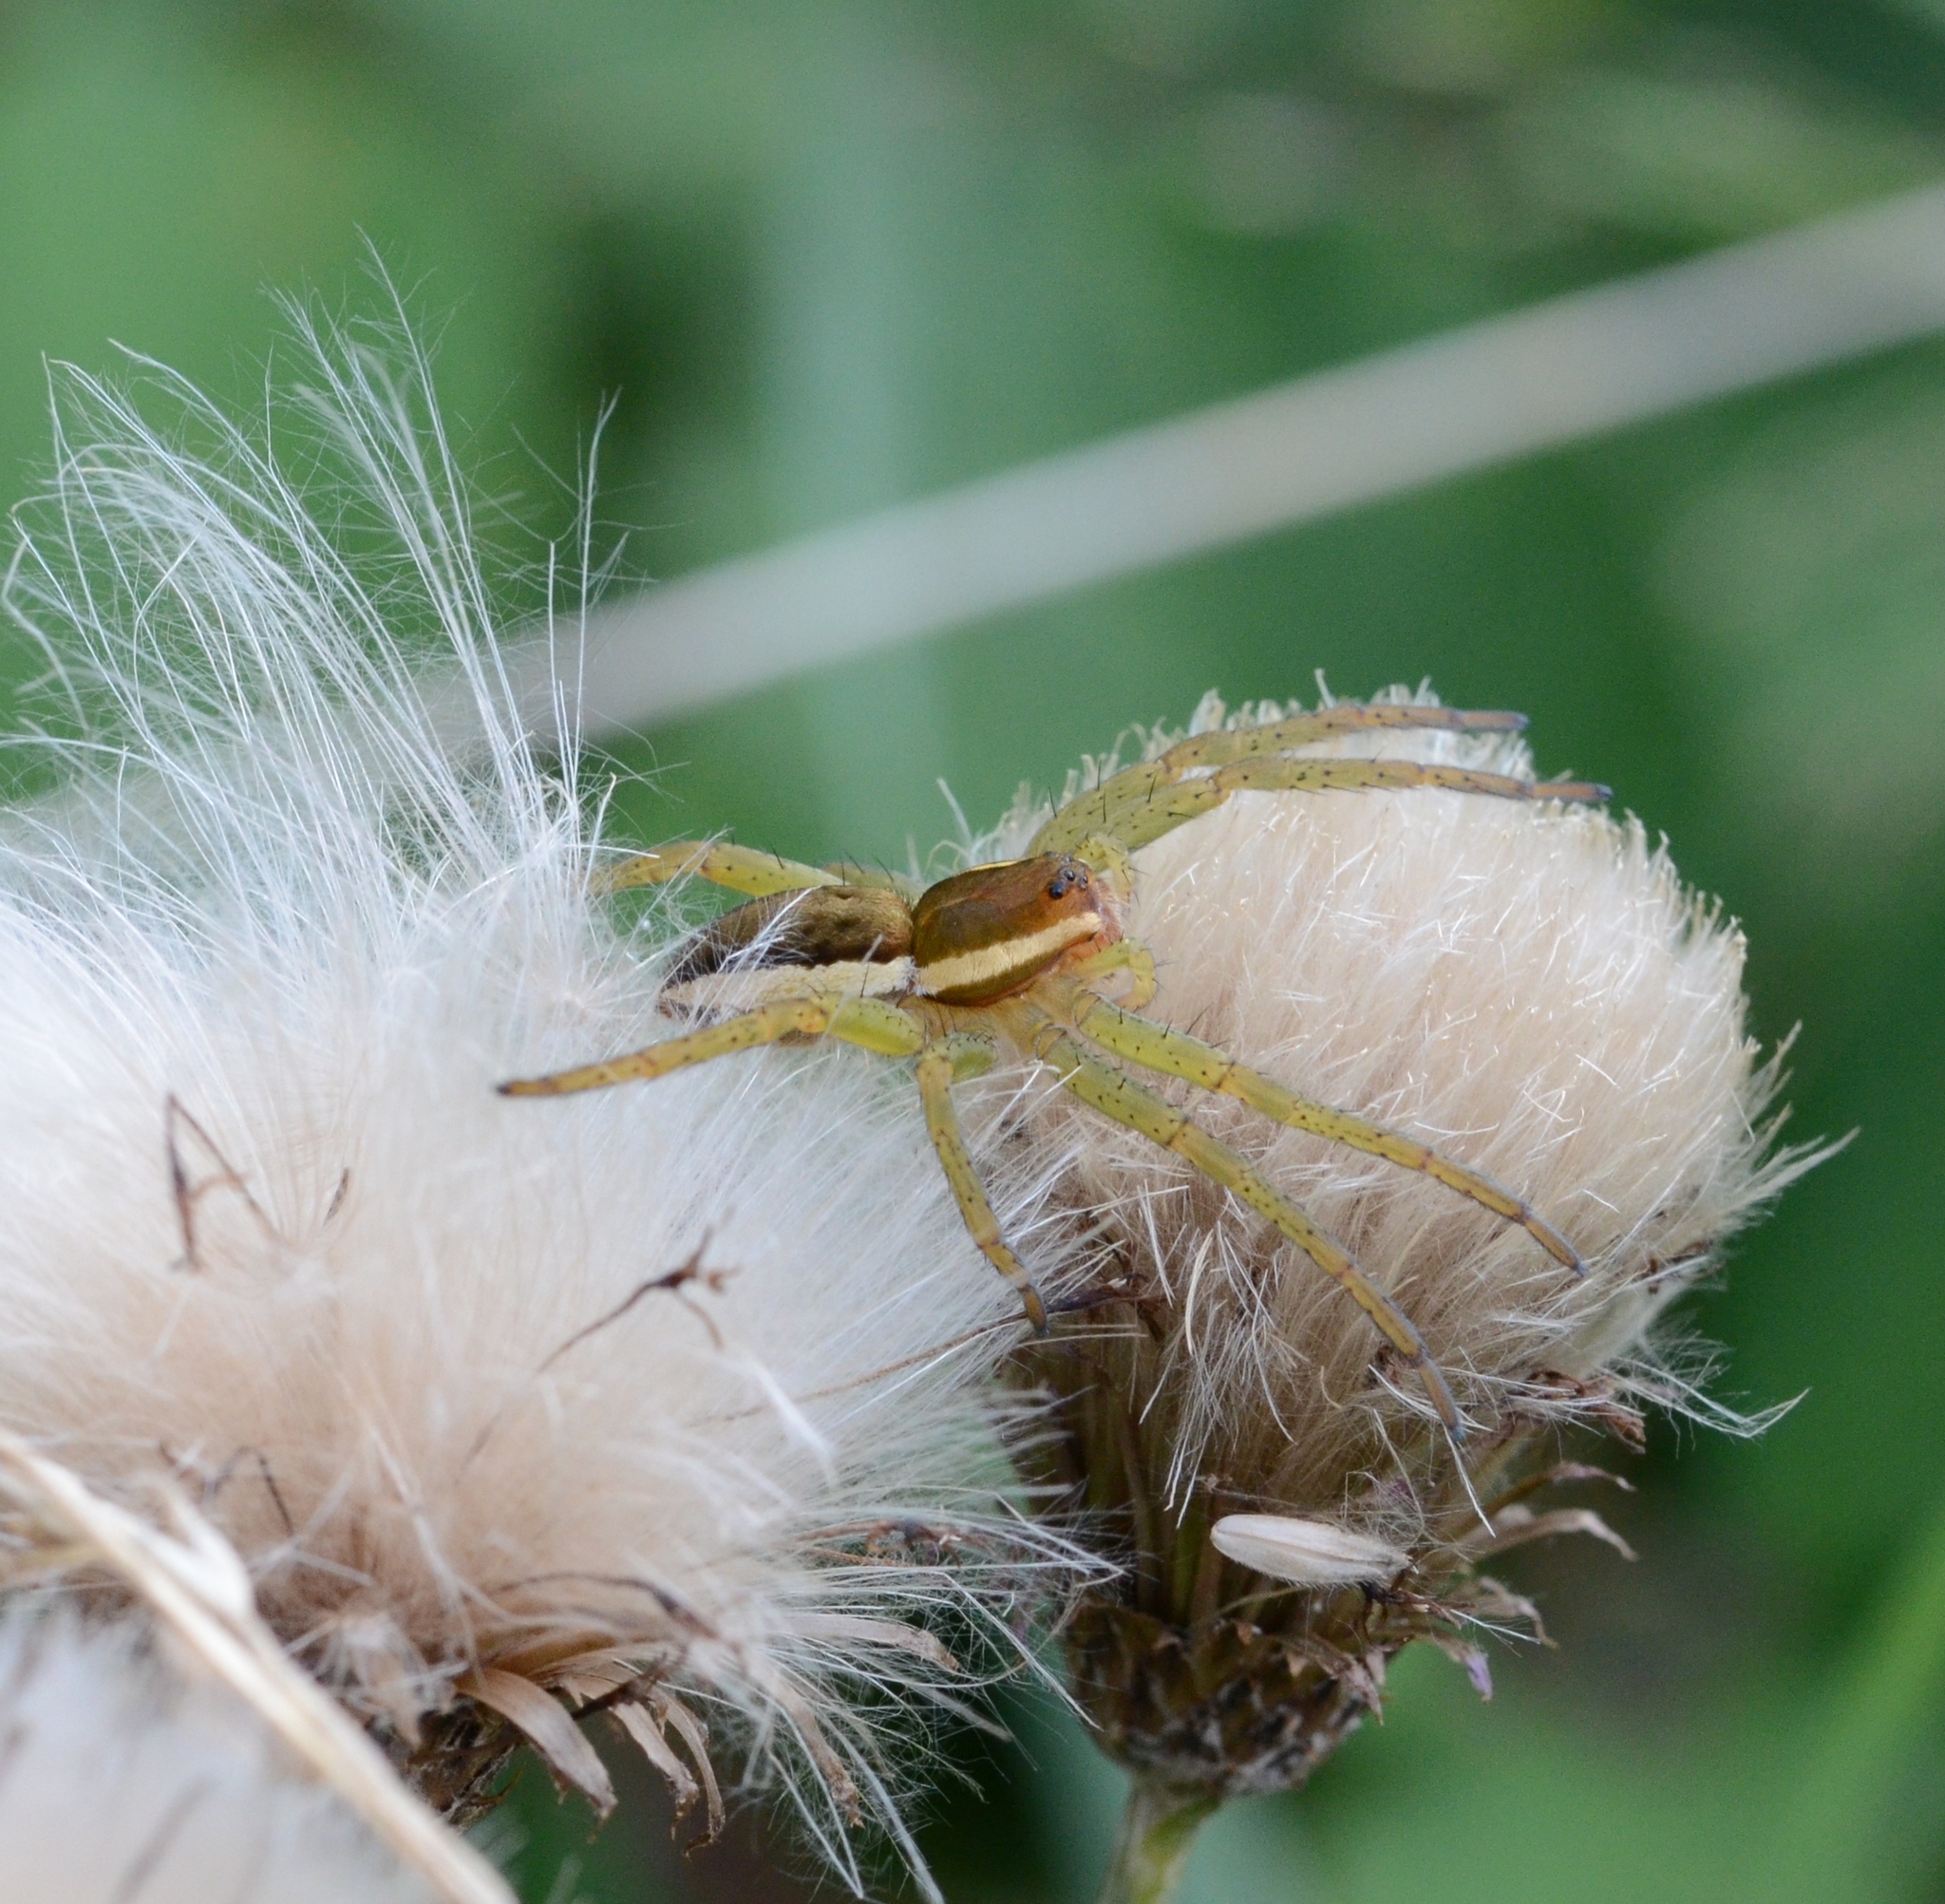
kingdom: Animalia
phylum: Arthropoda
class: Arachnida
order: Araneae
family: Pisauridae
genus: Dolomedes
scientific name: Dolomedes fimbriatus
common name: Raft spider
